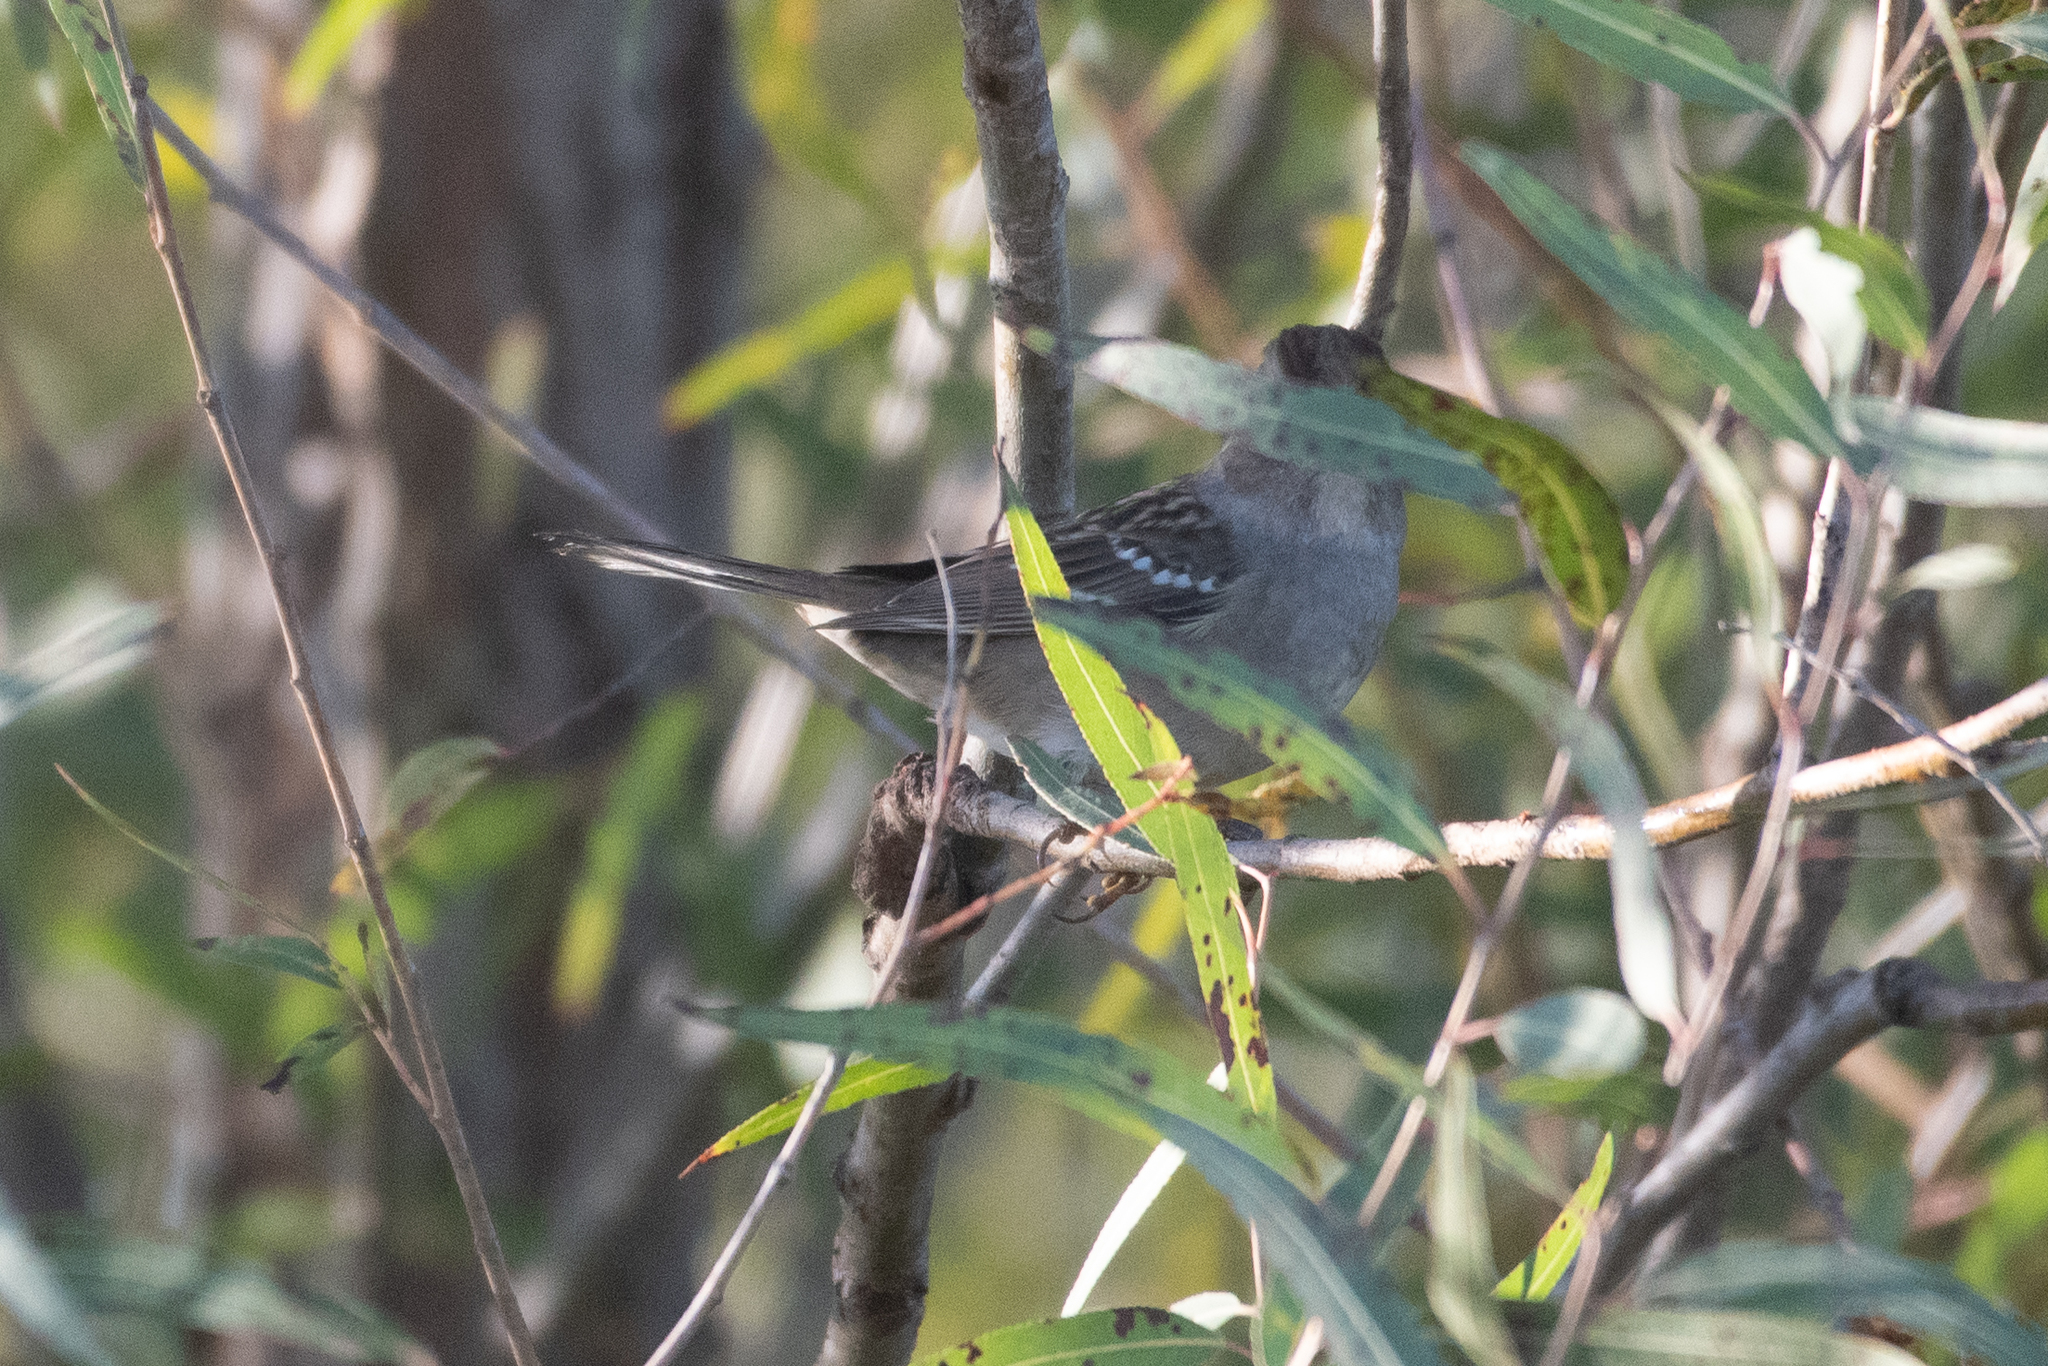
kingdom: Animalia
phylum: Chordata
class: Aves
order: Passeriformes
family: Passerellidae
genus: Zonotrichia
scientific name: Zonotrichia leucophrys
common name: White-crowned sparrow
